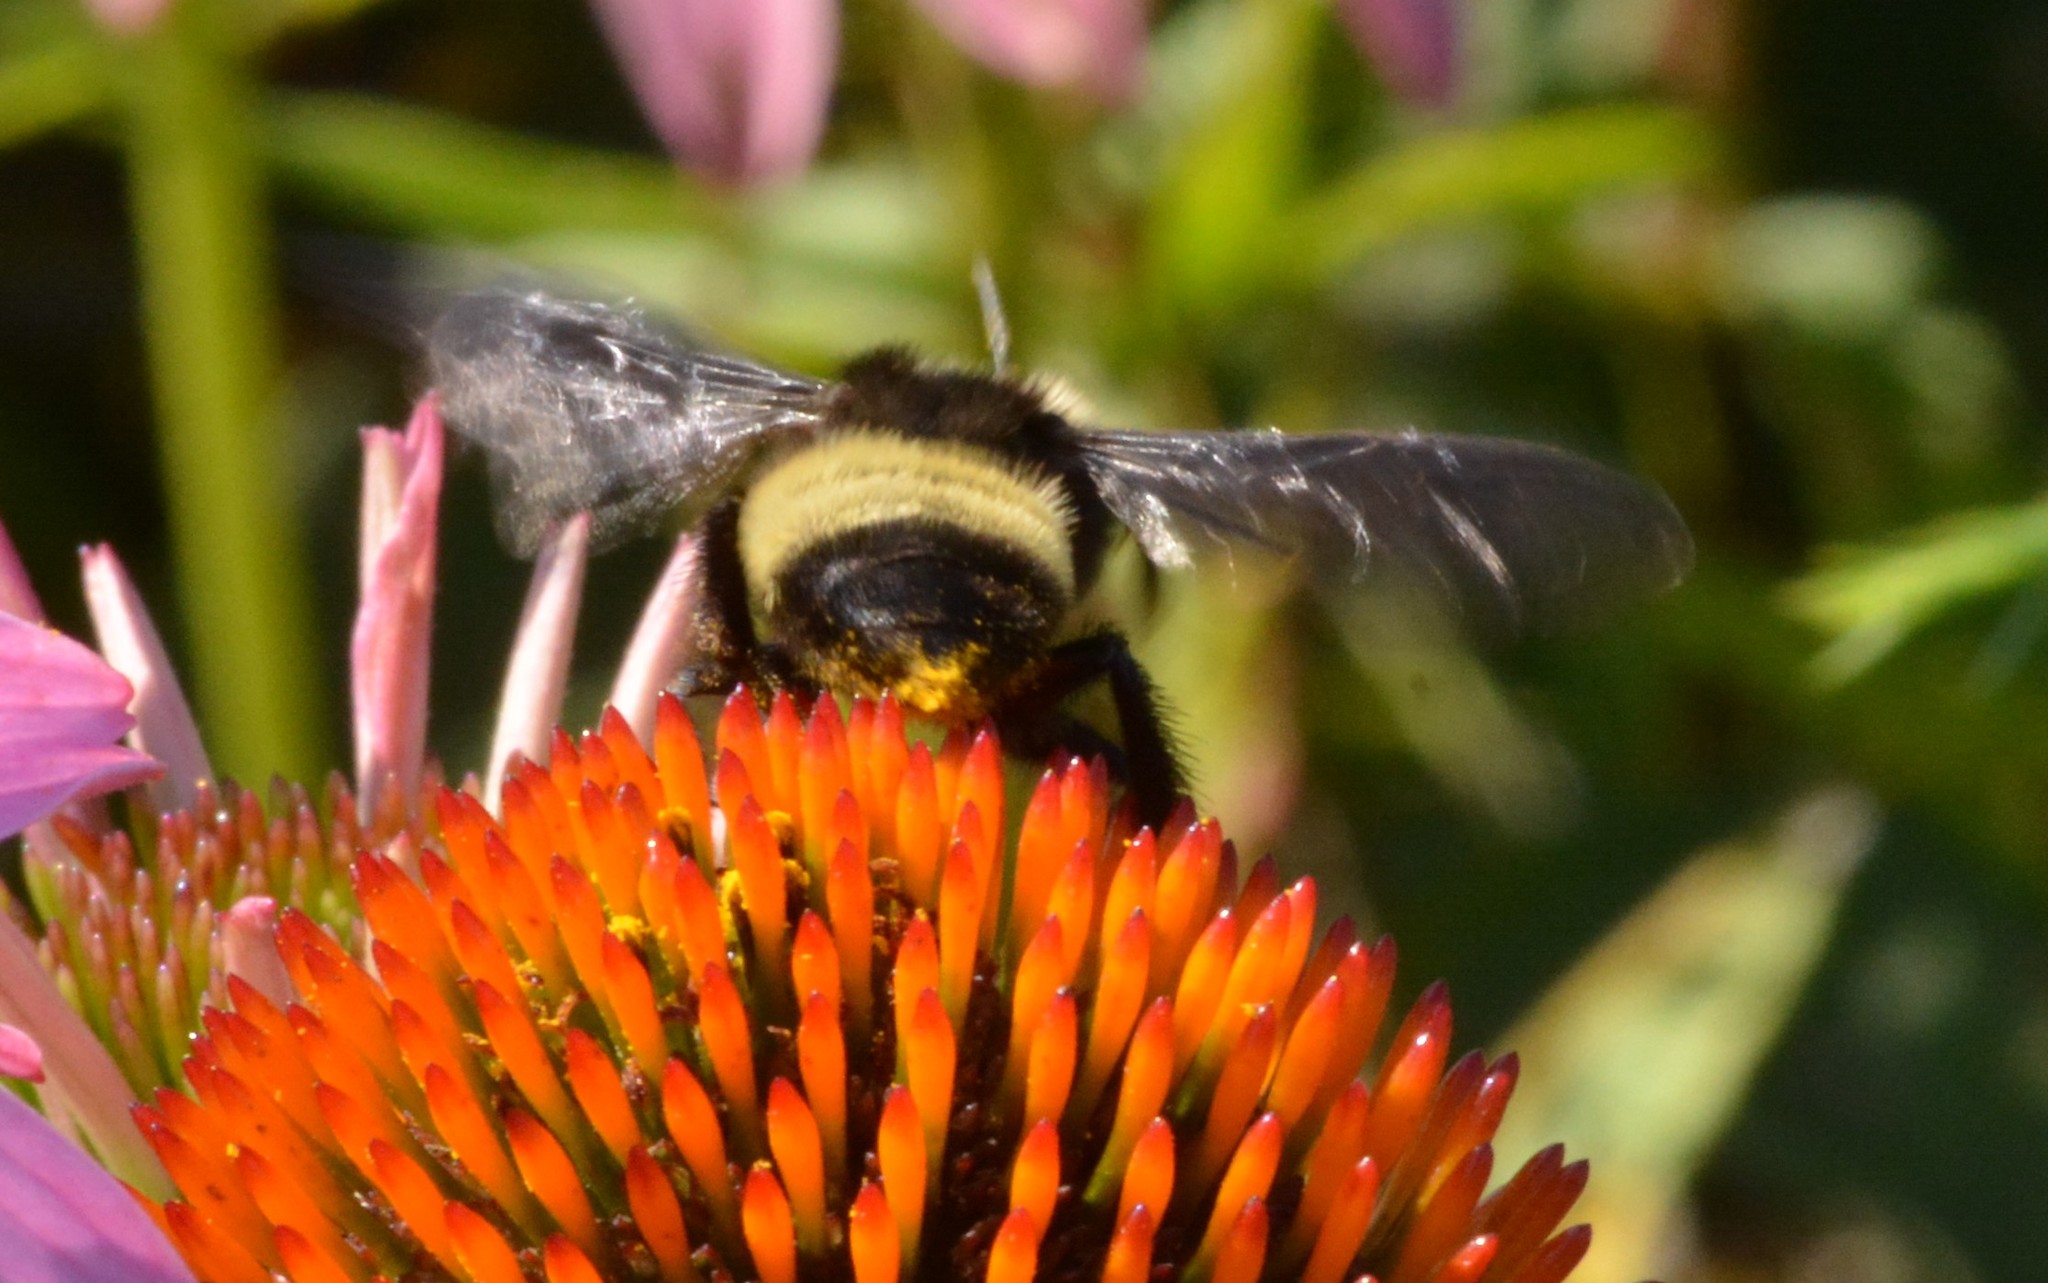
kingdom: Animalia
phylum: Arthropoda
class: Insecta
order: Hymenoptera
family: Apidae
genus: Bombus
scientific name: Bombus pensylvanicus
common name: Bumble bee
